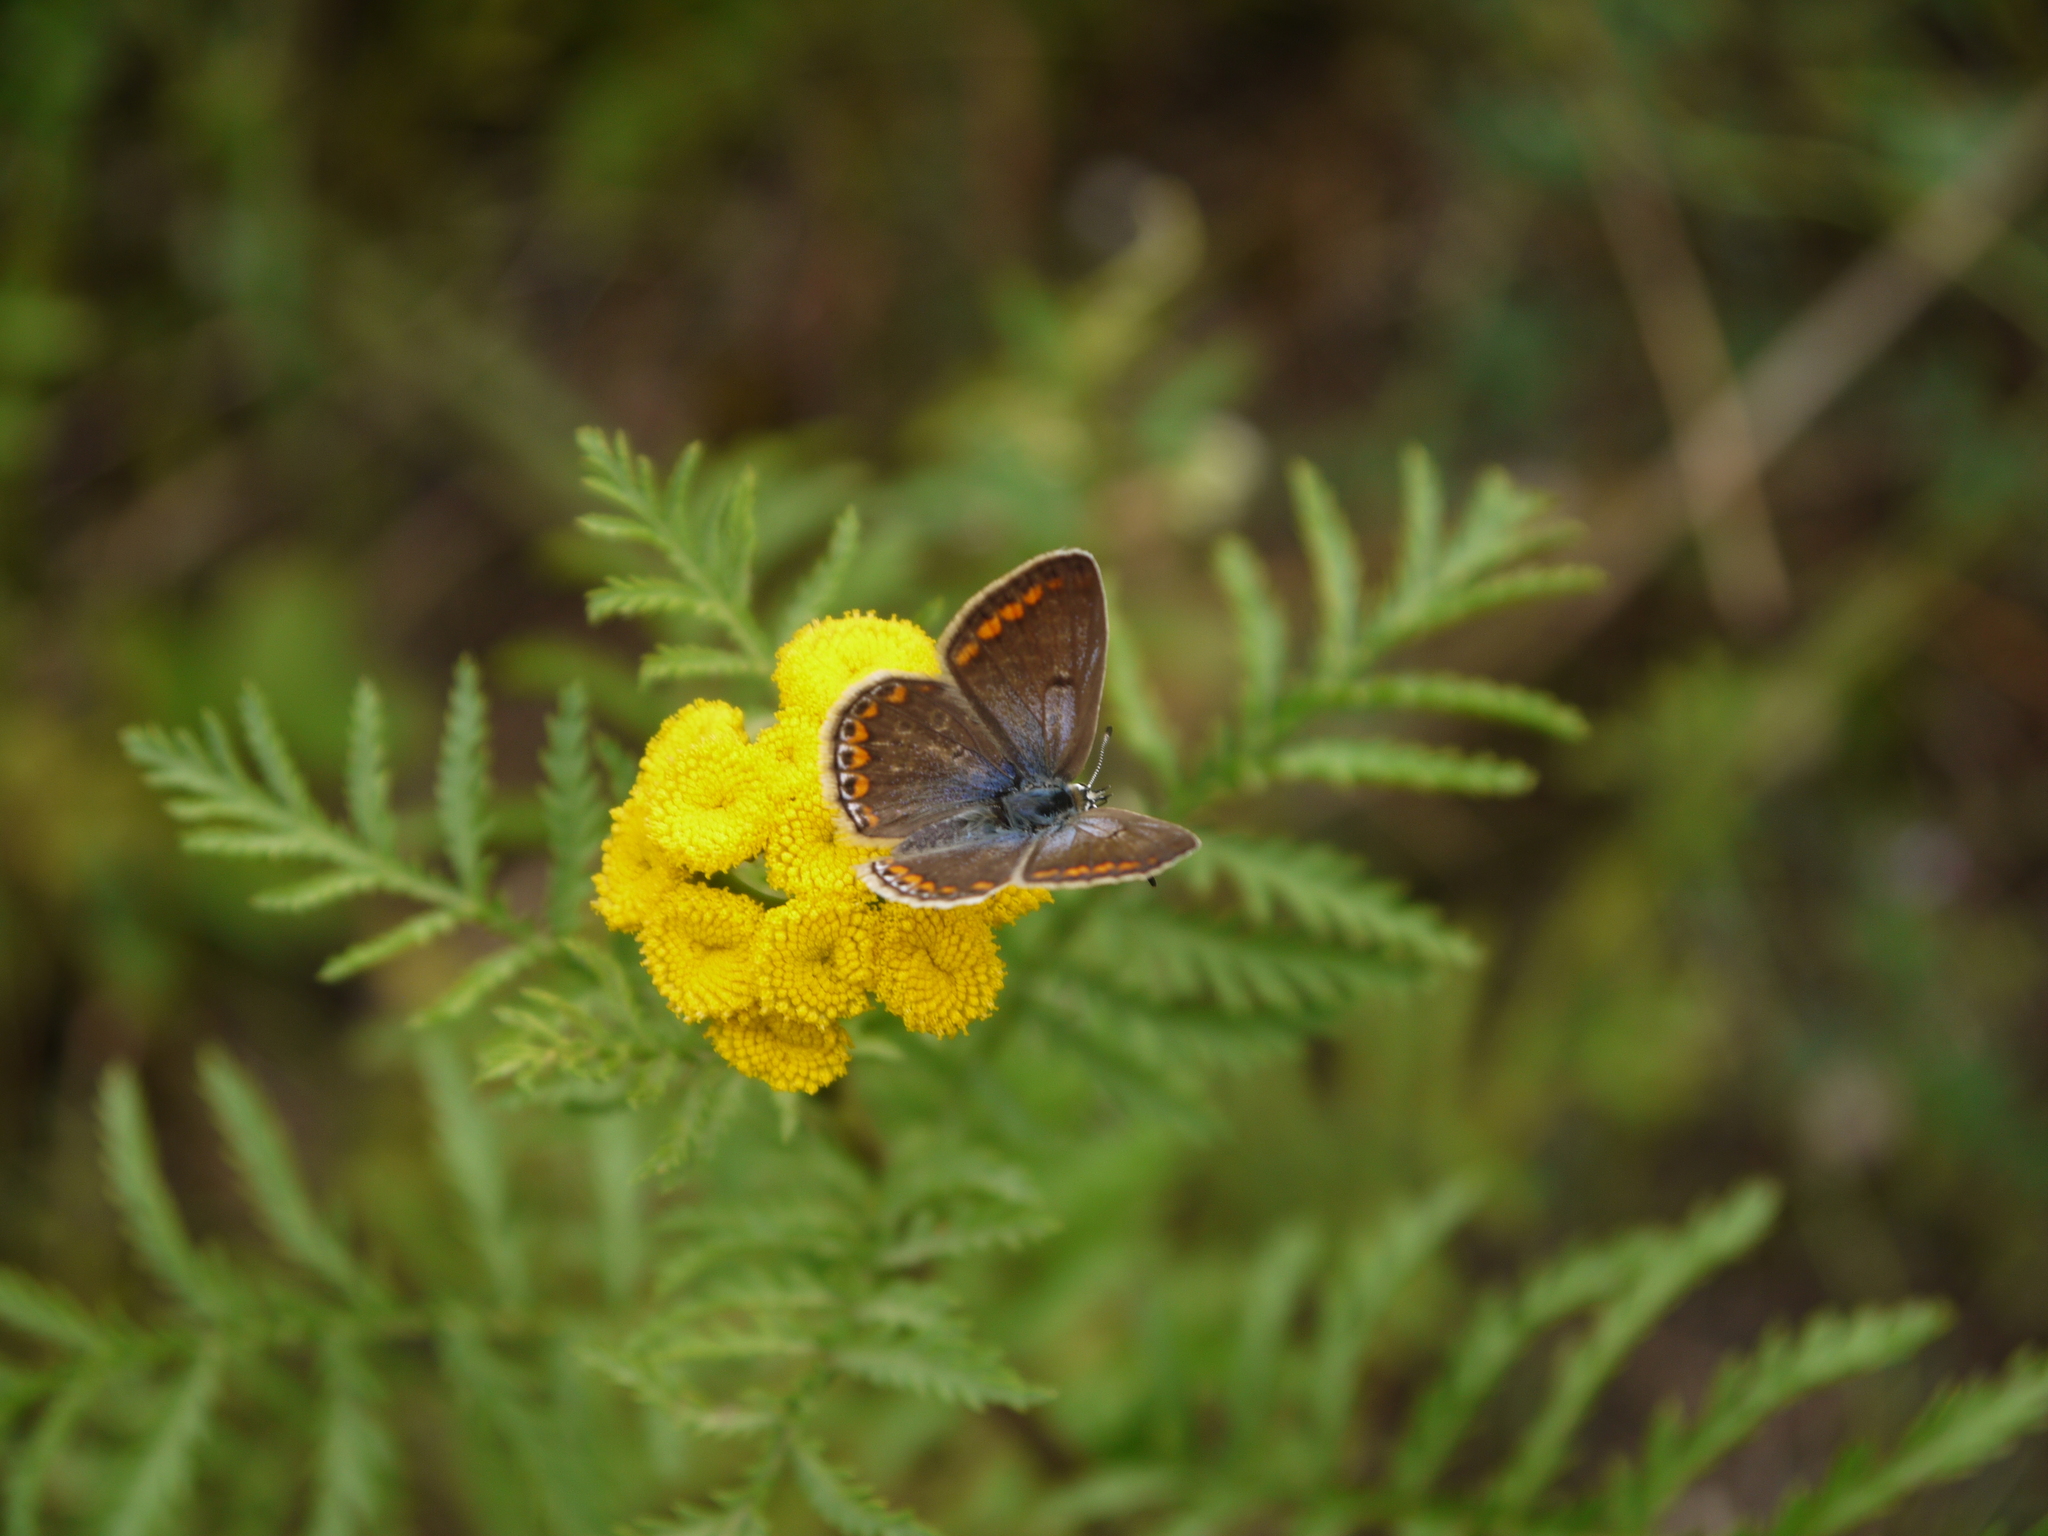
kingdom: Animalia
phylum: Arthropoda
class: Insecta
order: Lepidoptera
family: Lycaenidae
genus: Polyommatus
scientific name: Polyommatus icarus
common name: Common blue
